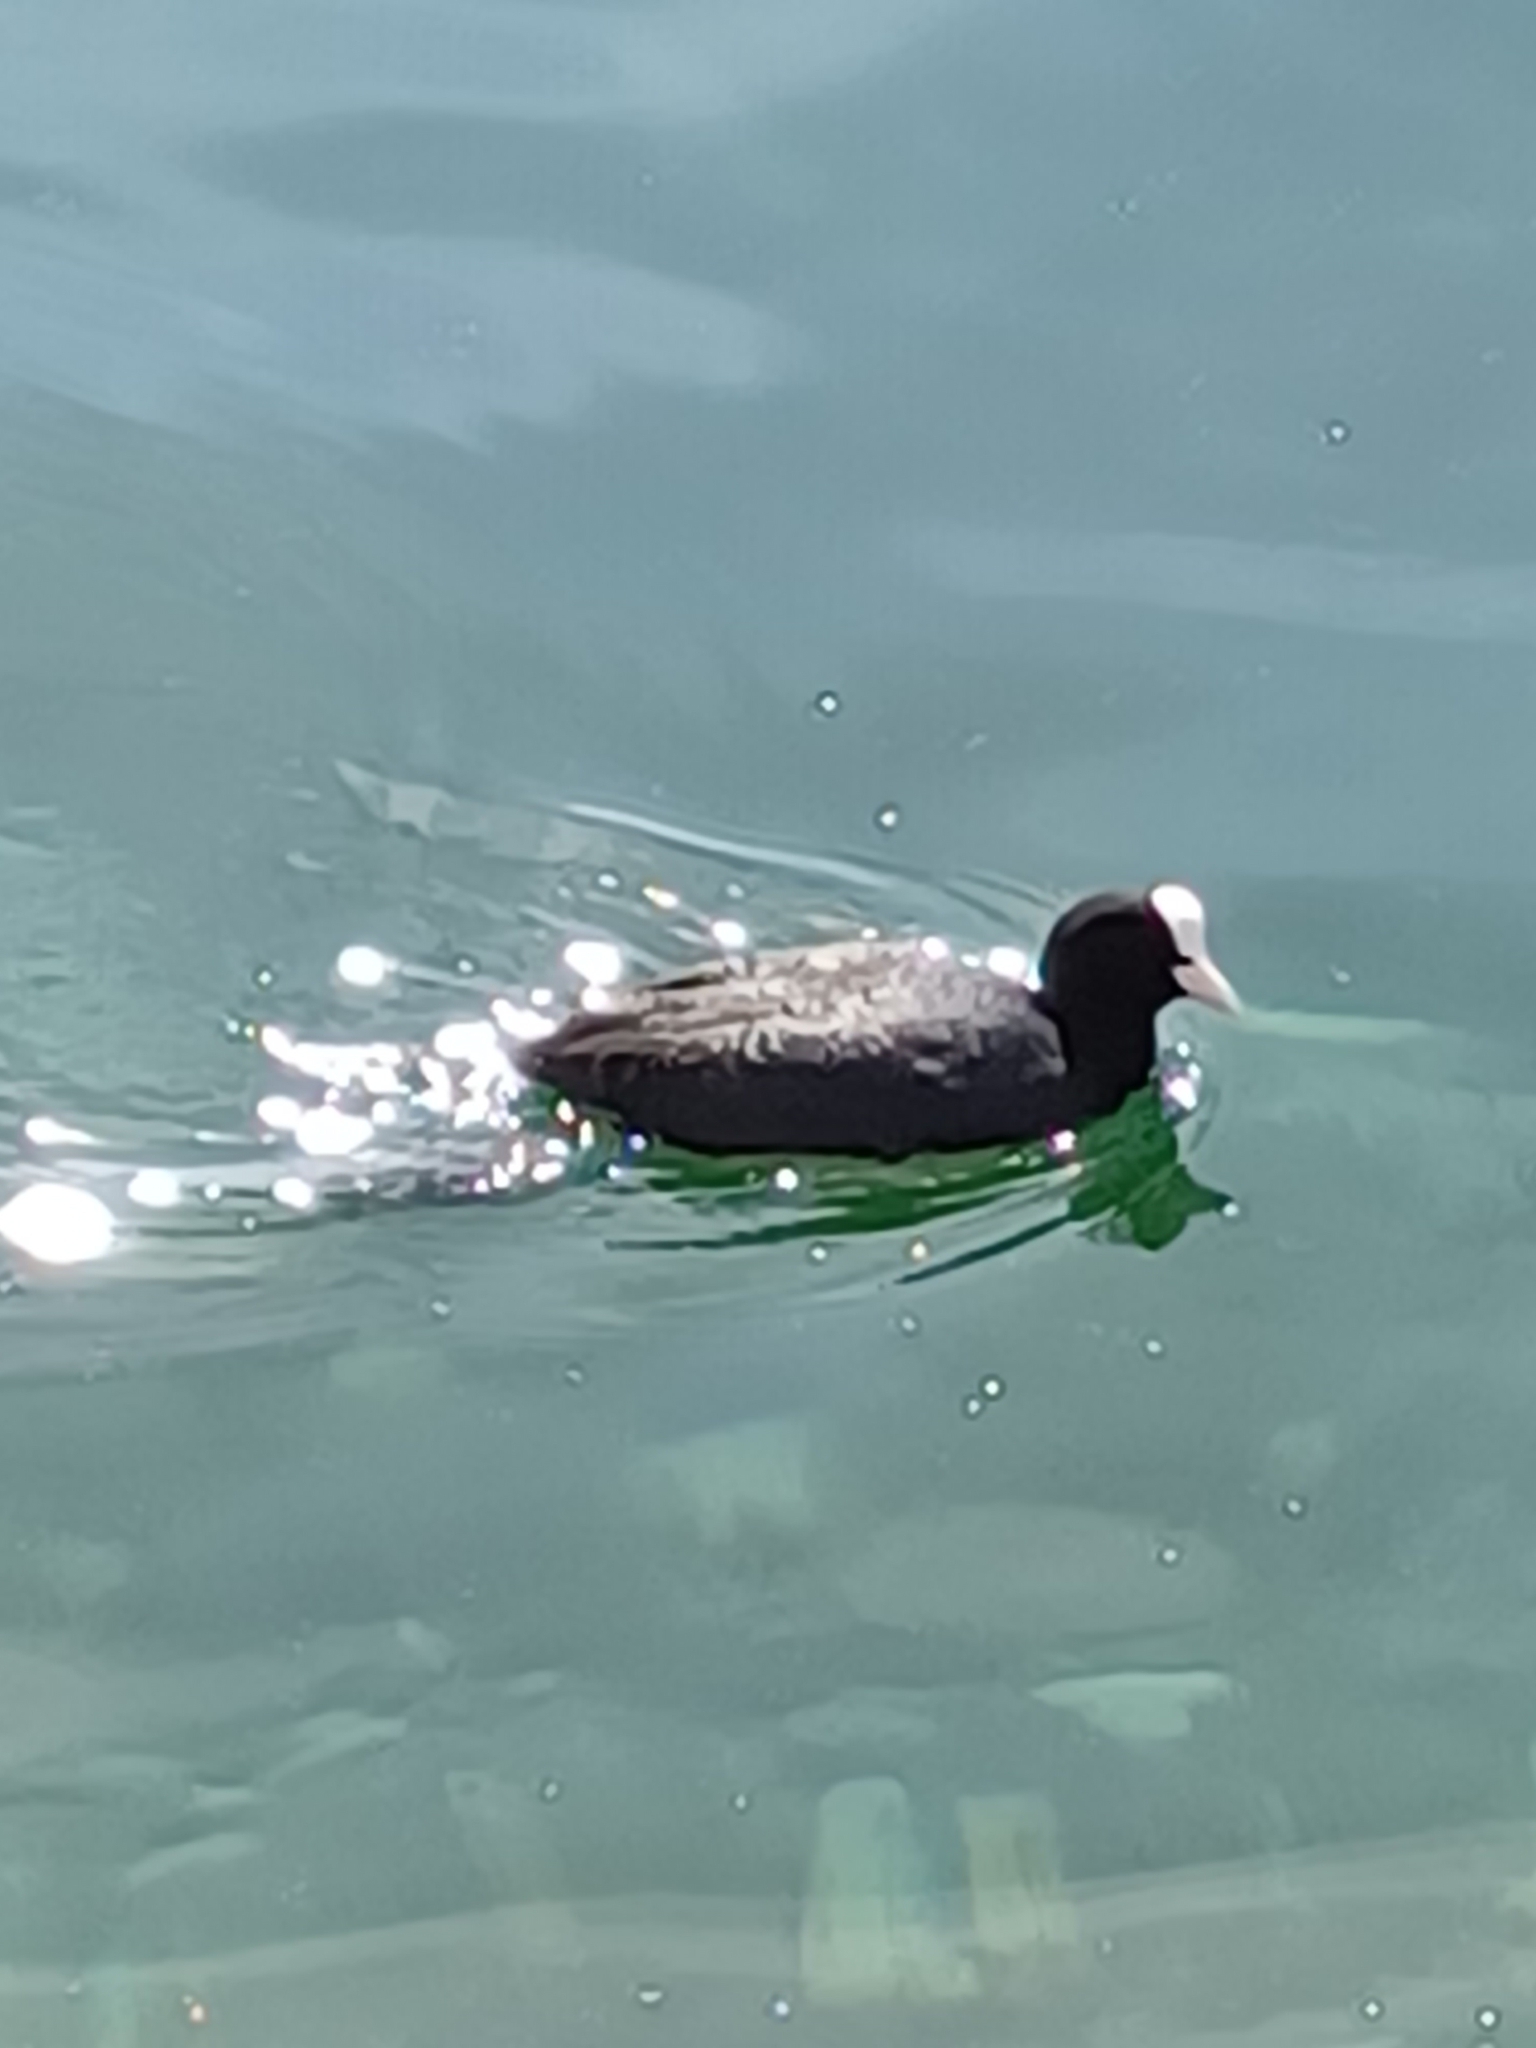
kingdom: Animalia
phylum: Chordata
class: Aves
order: Gruiformes
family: Rallidae
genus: Fulica
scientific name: Fulica atra
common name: Eurasian coot
